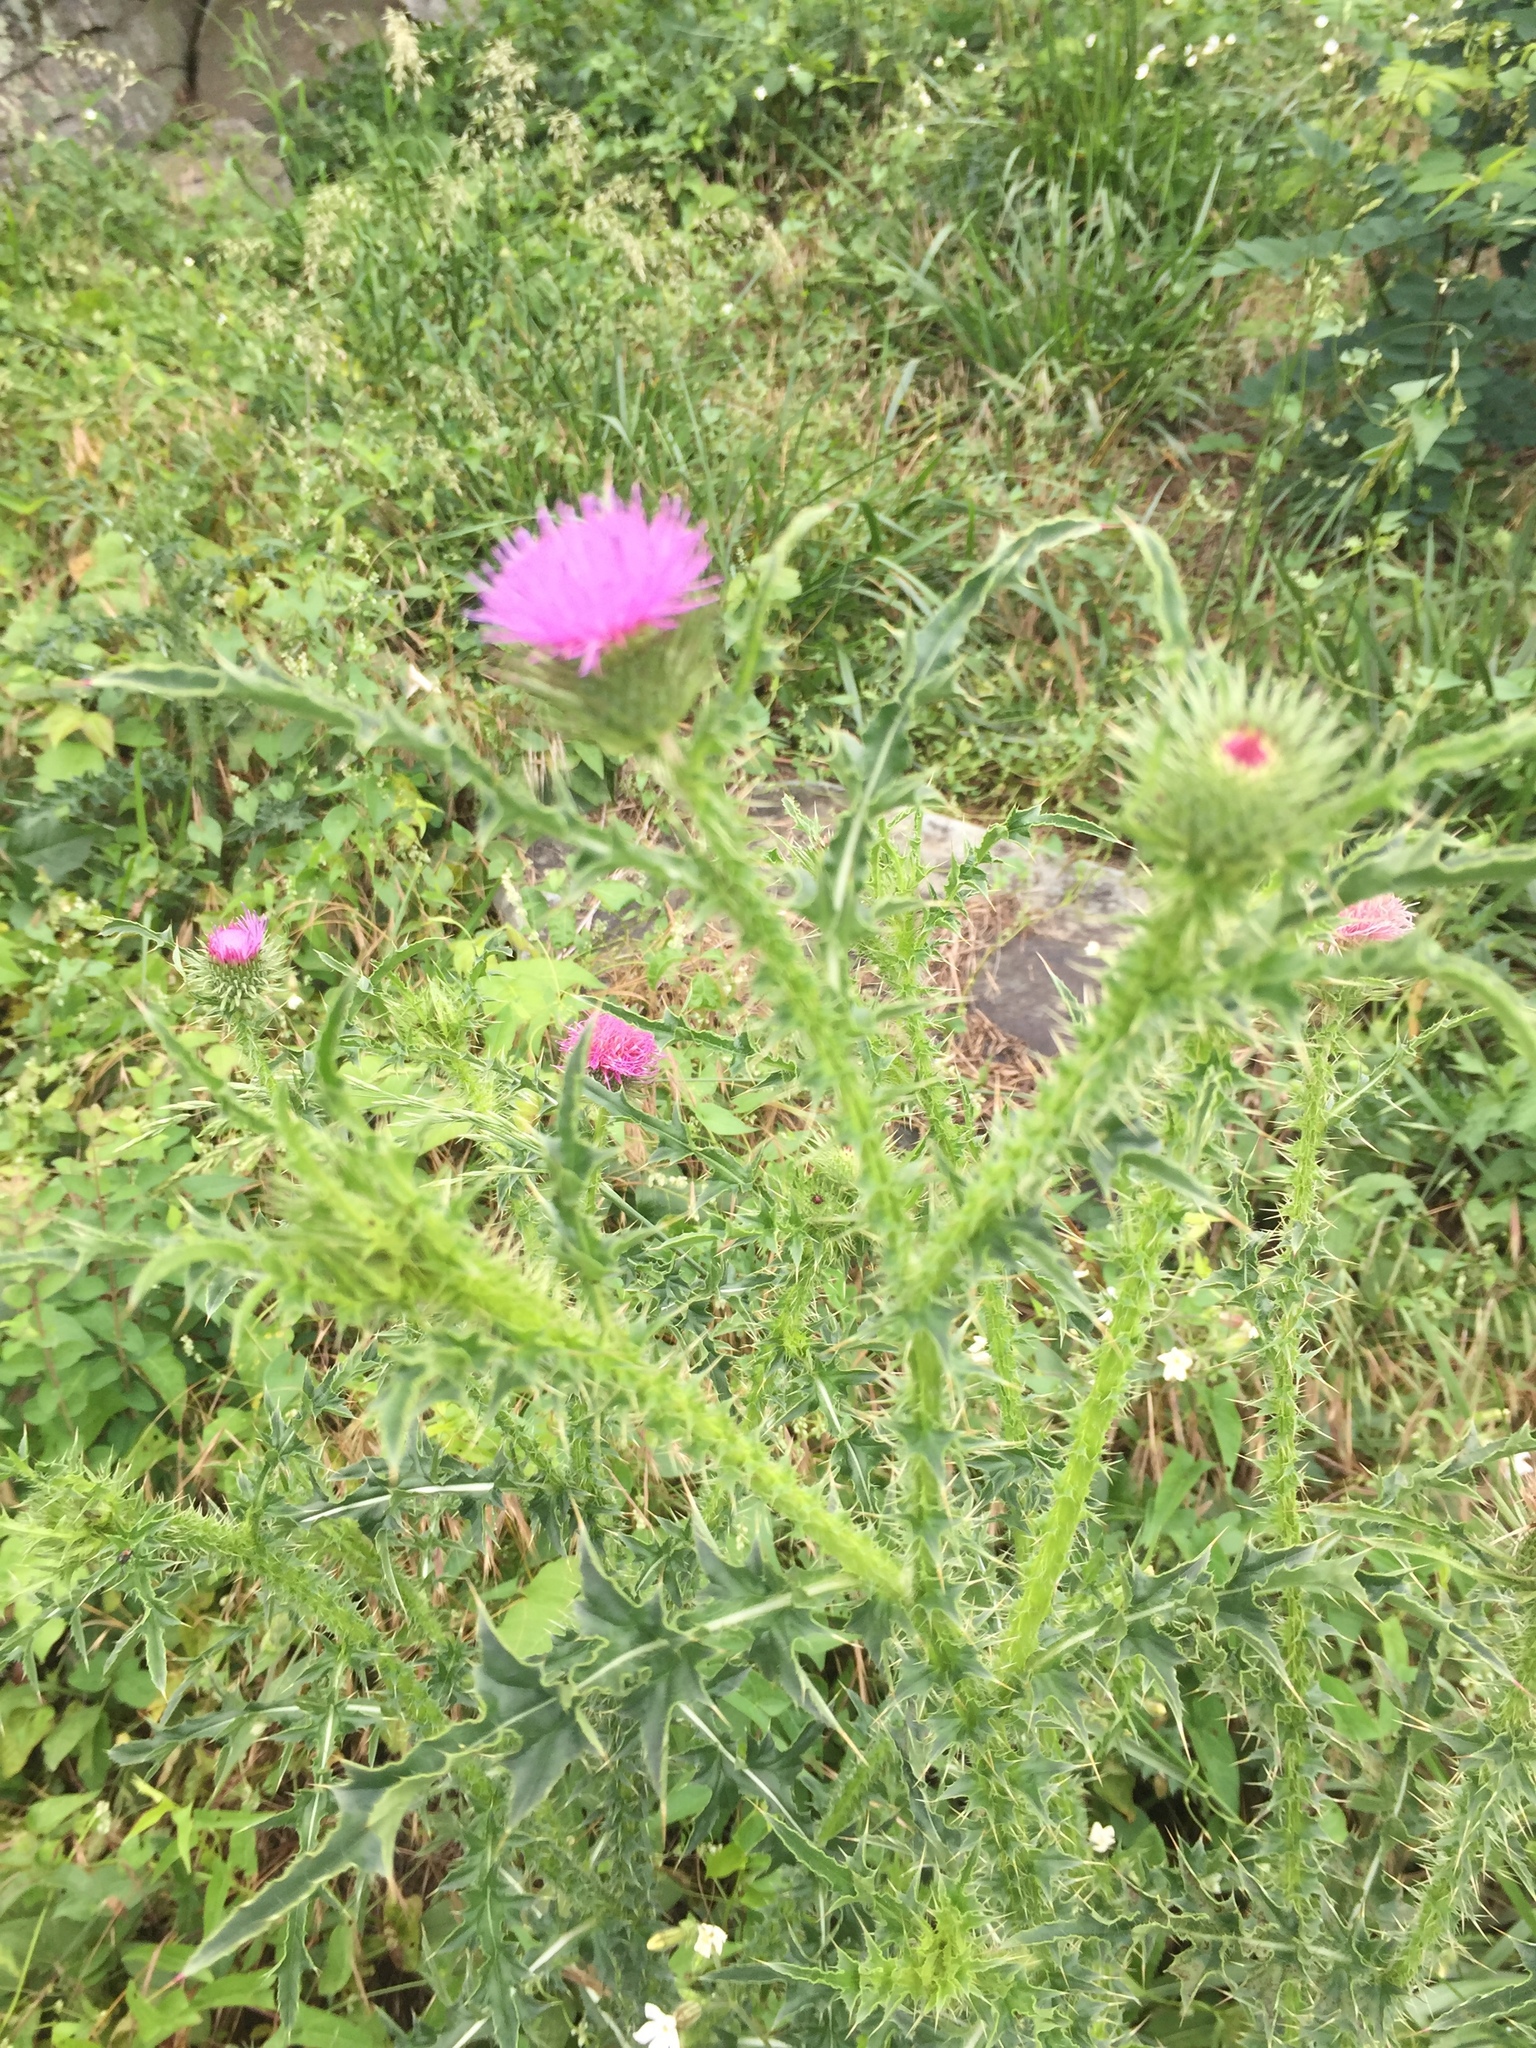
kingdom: Plantae
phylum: Tracheophyta
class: Magnoliopsida
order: Asterales
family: Asteraceae
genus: Carduus
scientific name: Carduus acanthoides
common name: Plumeless thistle
